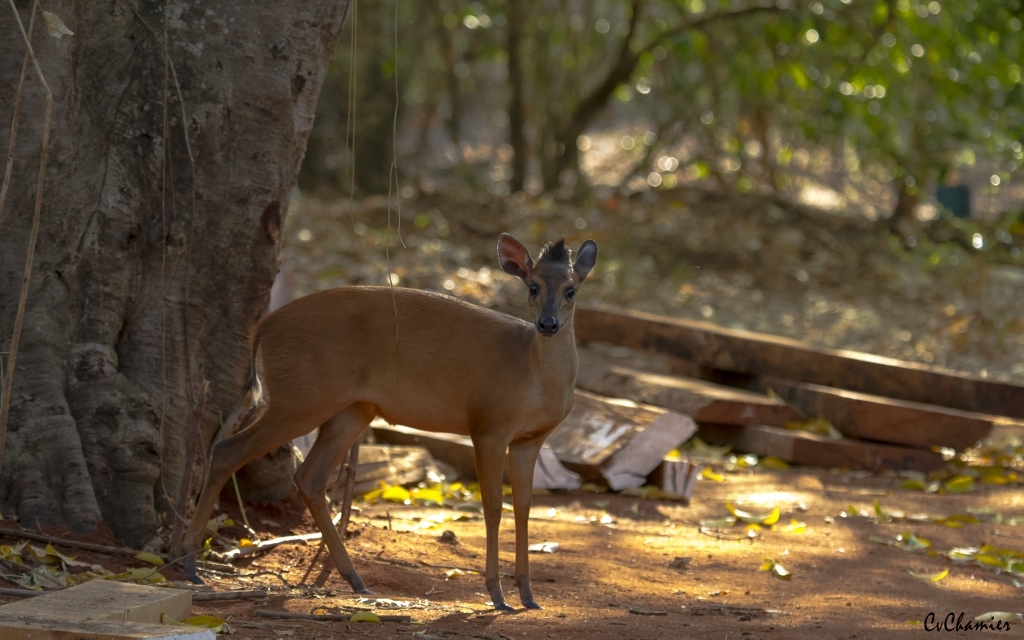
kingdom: Animalia
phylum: Chordata
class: Mammalia
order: Artiodactyla
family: Bovidae
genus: Cephalophus
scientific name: Cephalophus natalensis
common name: Red duiker
